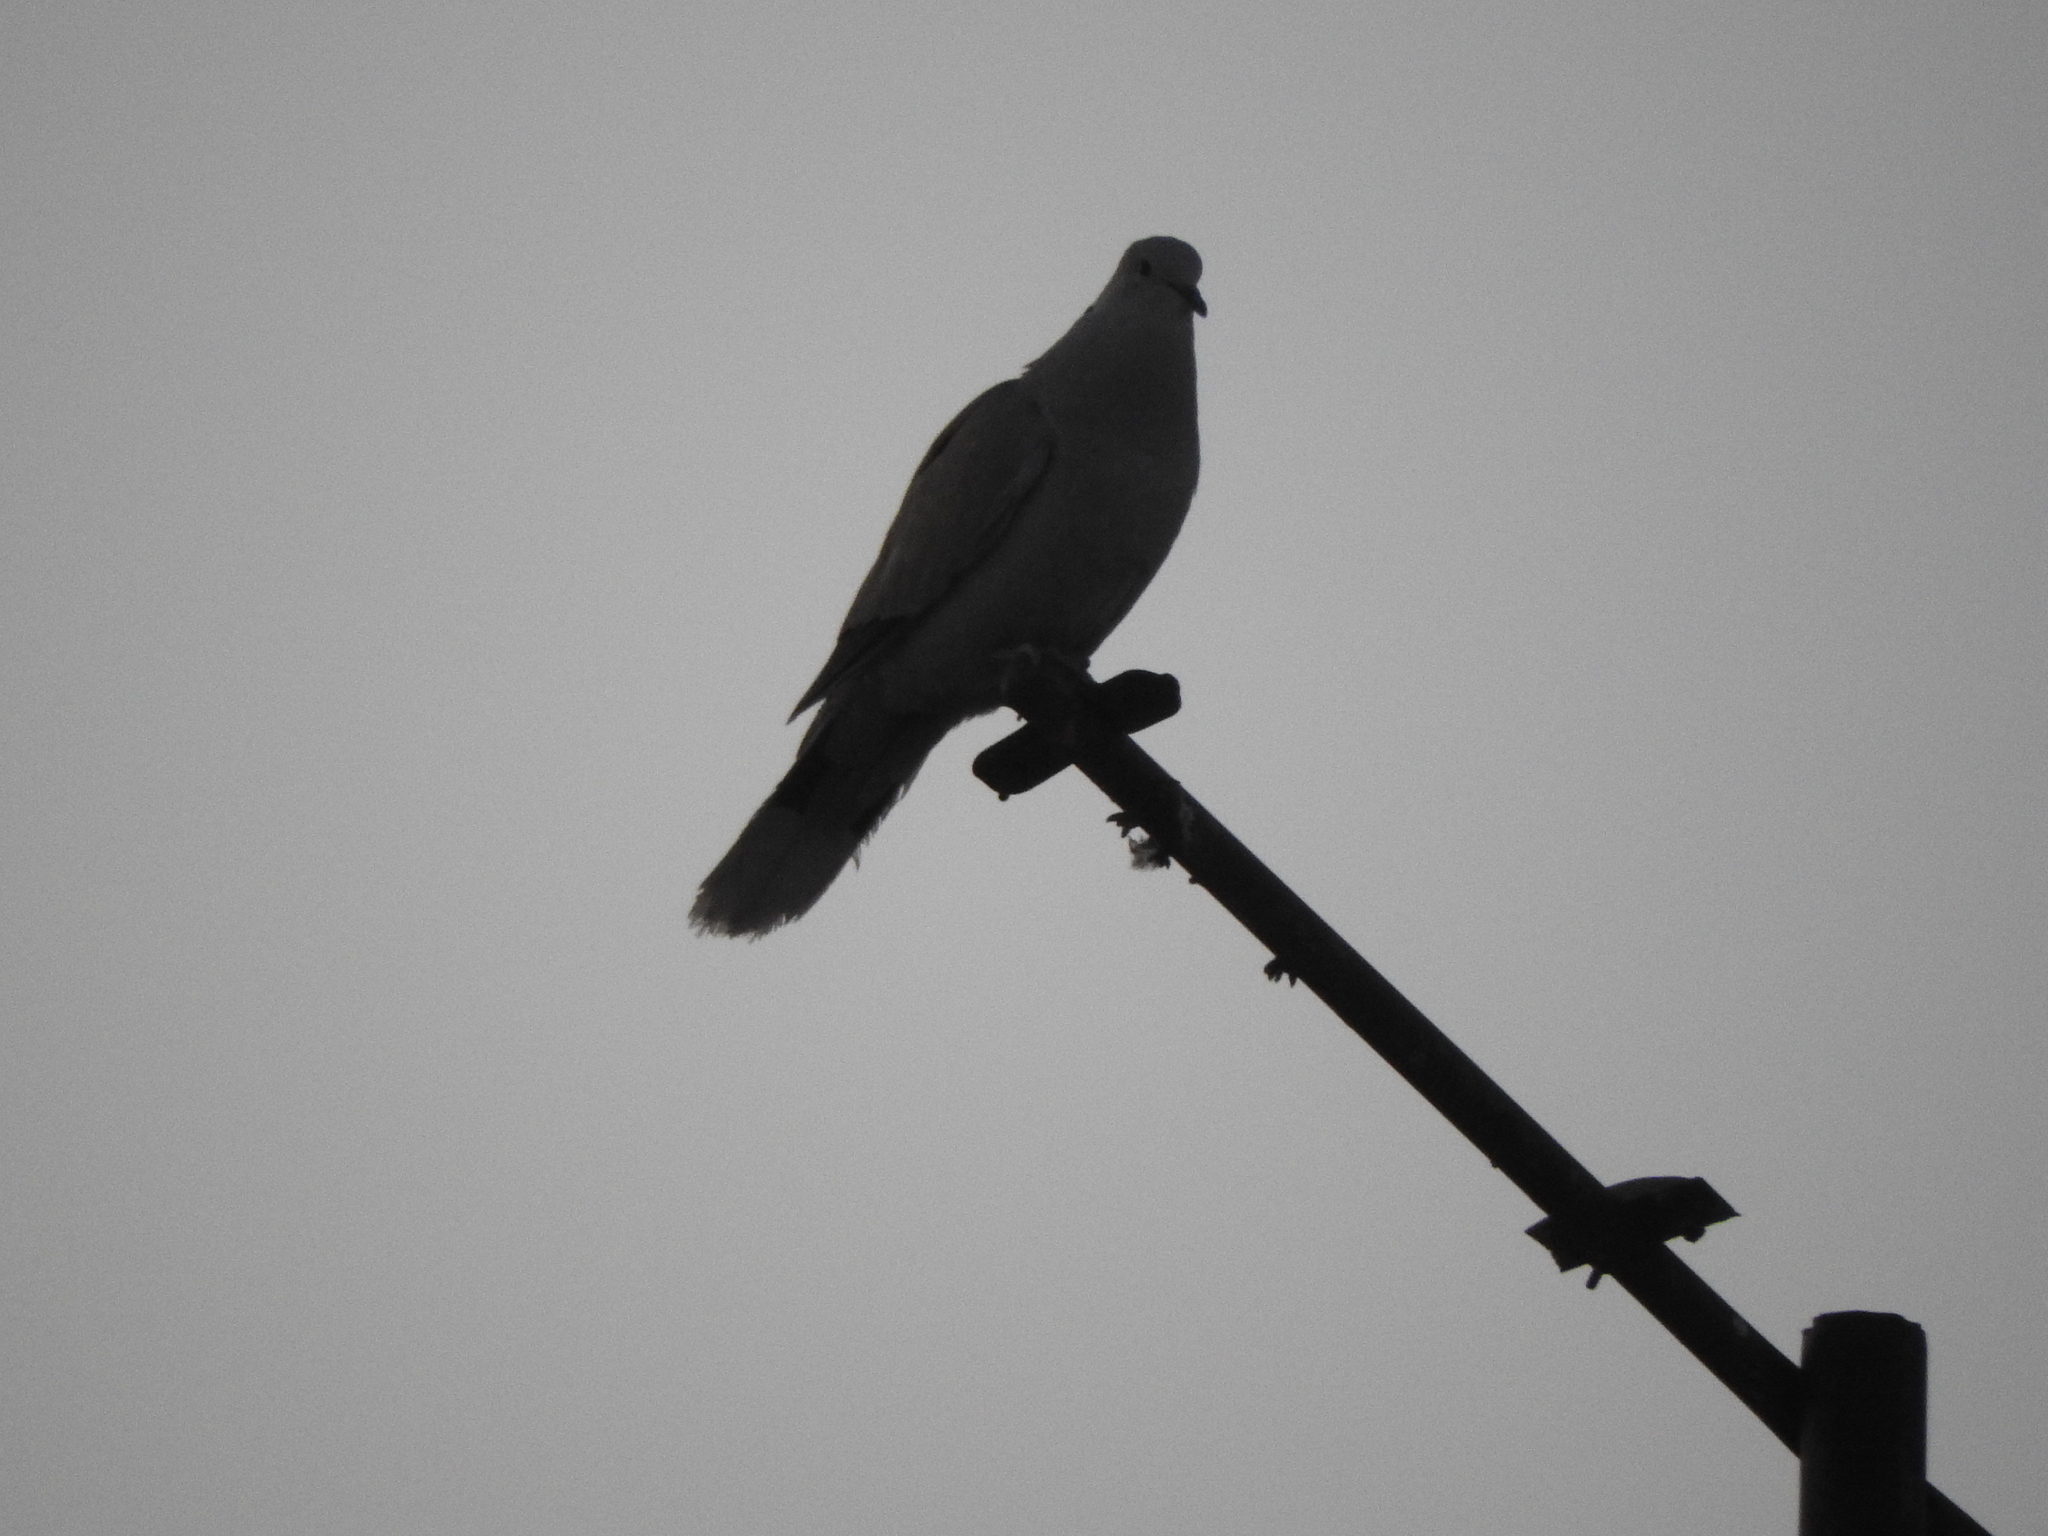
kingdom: Animalia
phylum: Chordata
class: Aves
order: Columbiformes
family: Columbidae
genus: Streptopelia
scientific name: Streptopelia decaocto
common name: Eurasian collared dove
